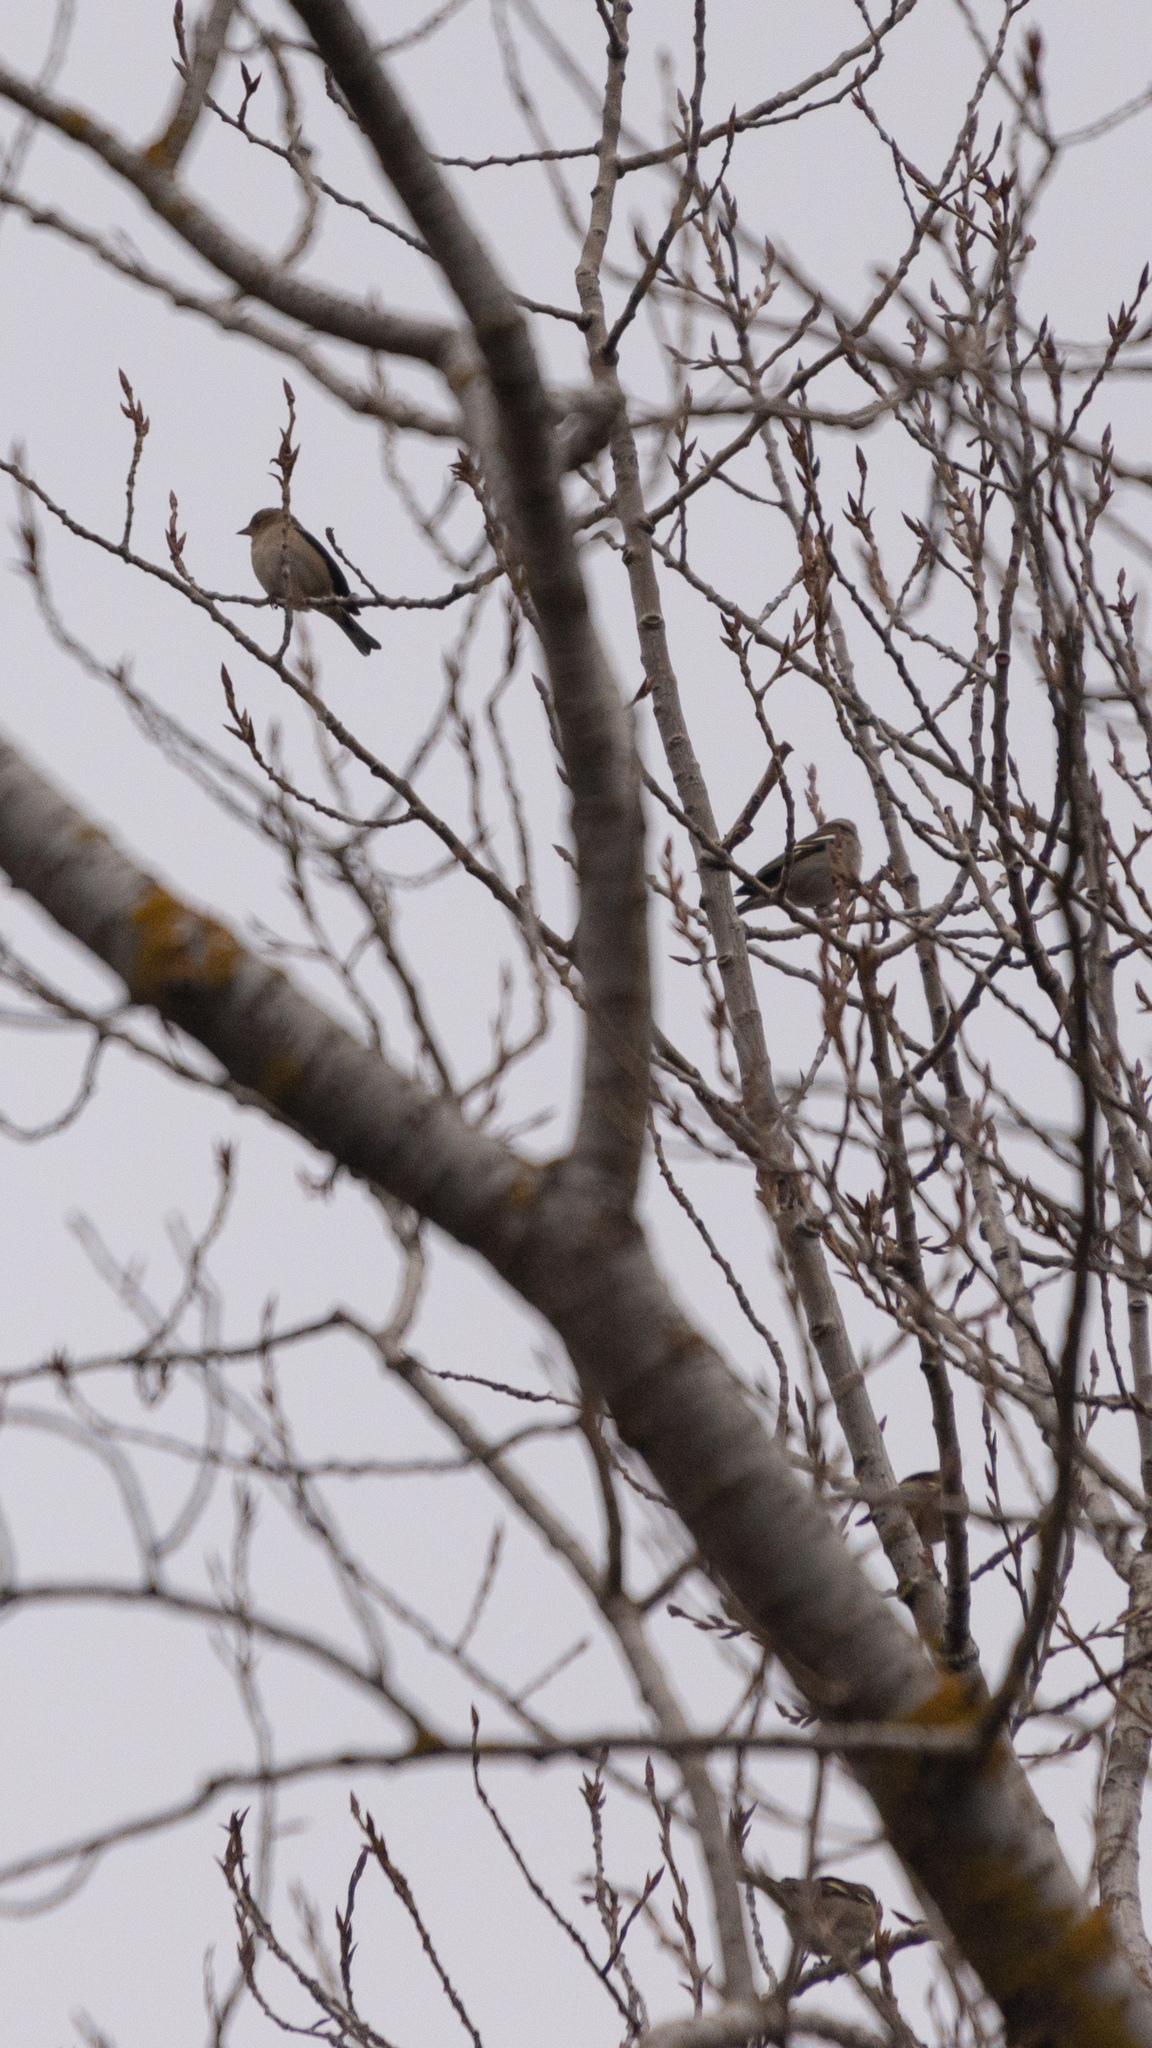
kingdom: Animalia
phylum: Chordata
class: Aves
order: Passeriformes
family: Fringillidae
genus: Fringilla
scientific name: Fringilla coelebs
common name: Common chaffinch
